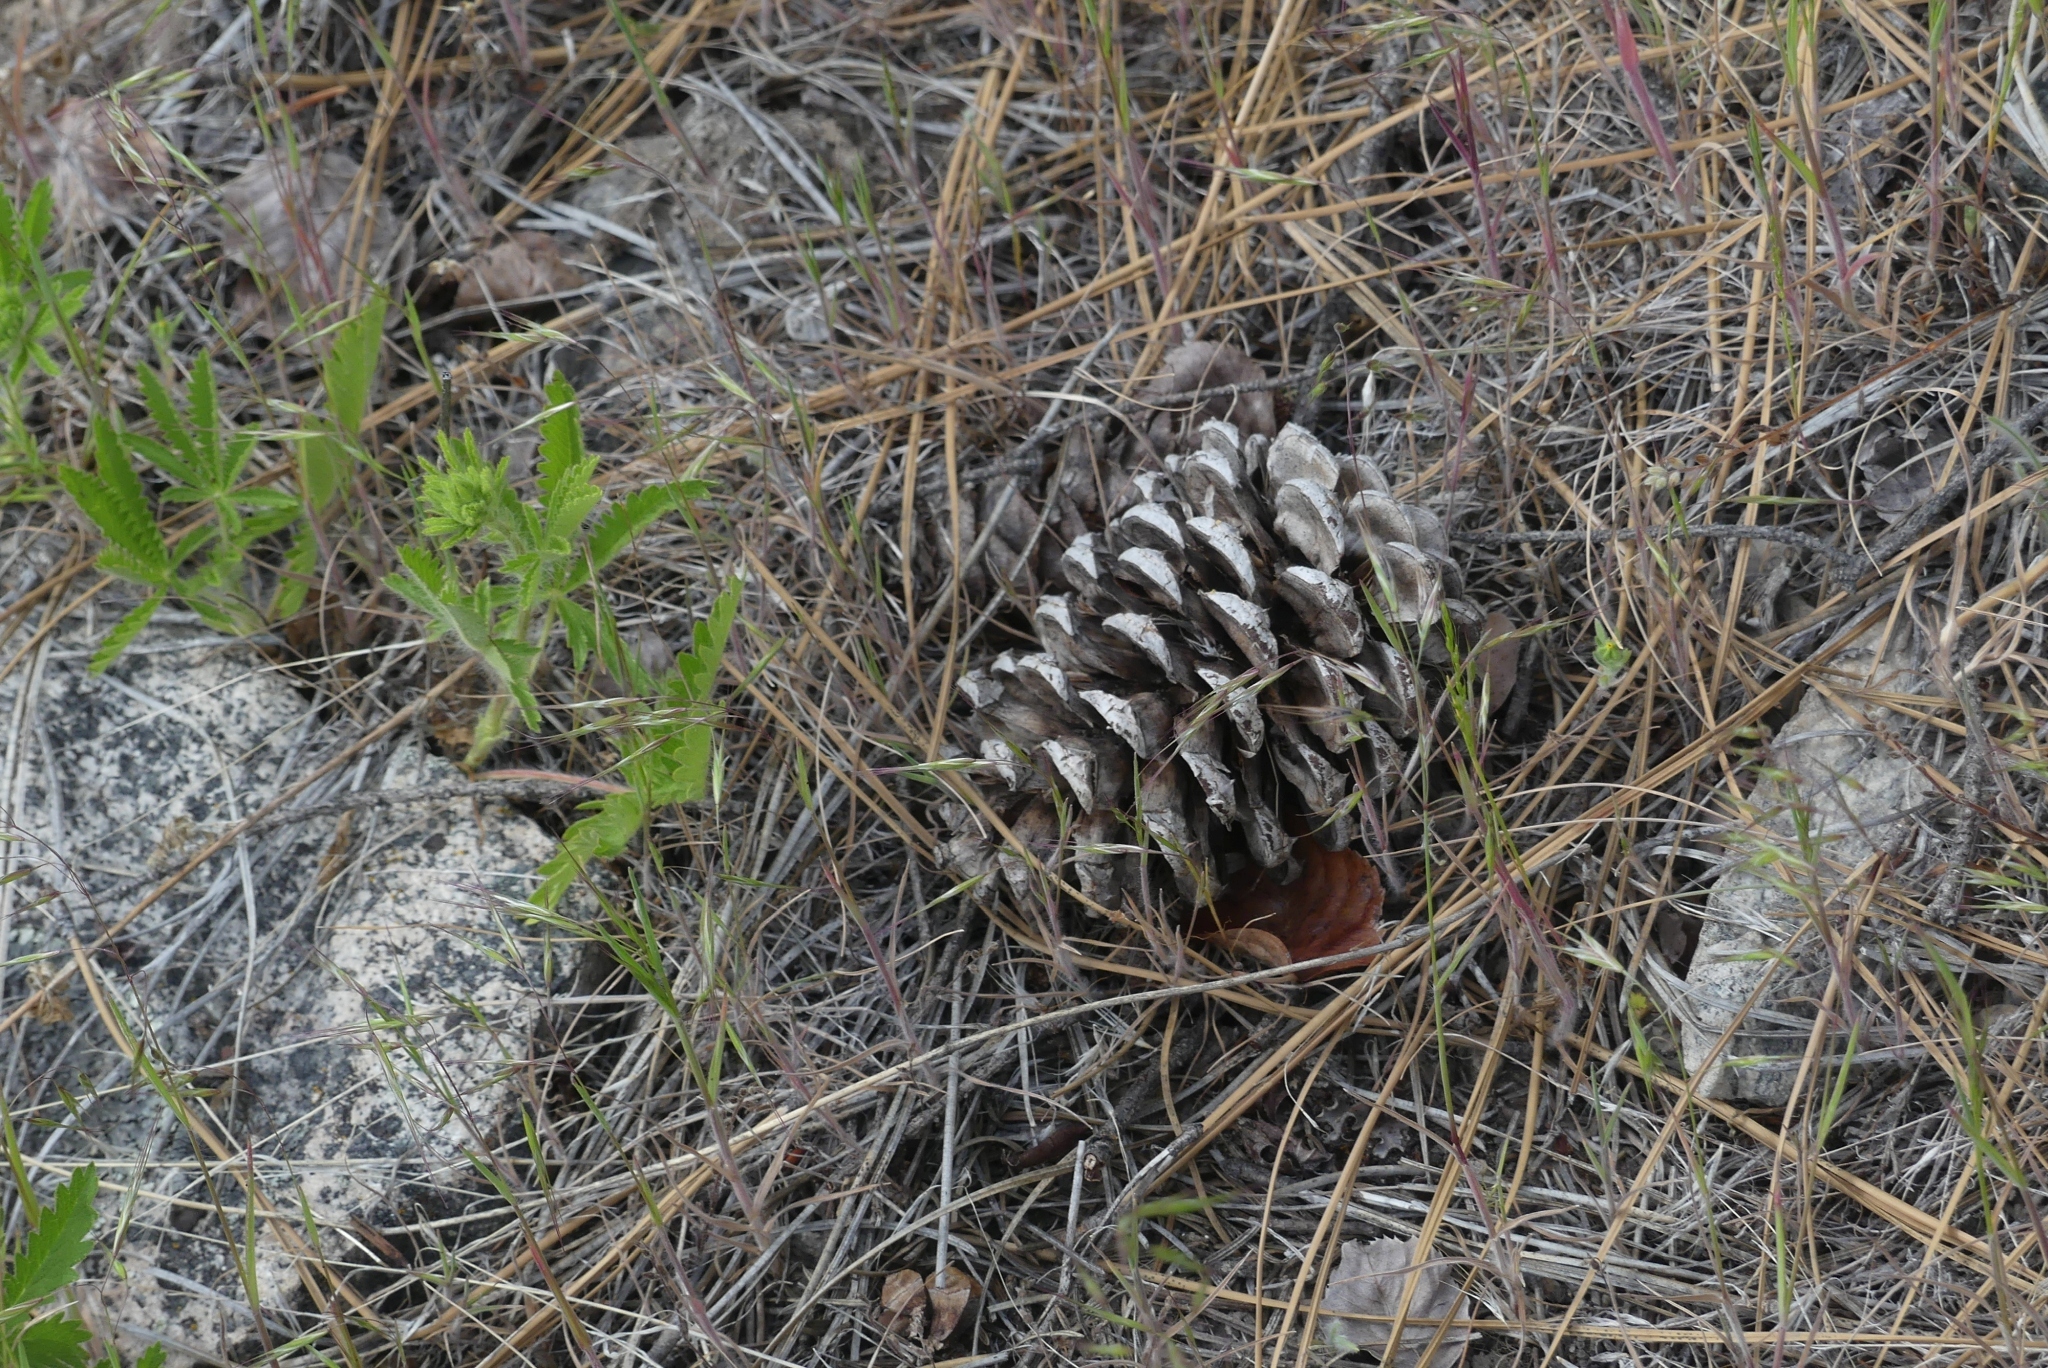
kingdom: Plantae
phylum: Tracheophyta
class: Pinopsida
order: Pinales
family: Pinaceae
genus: Pinus
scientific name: Pinus ponderosa
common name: Western yellow-pine
